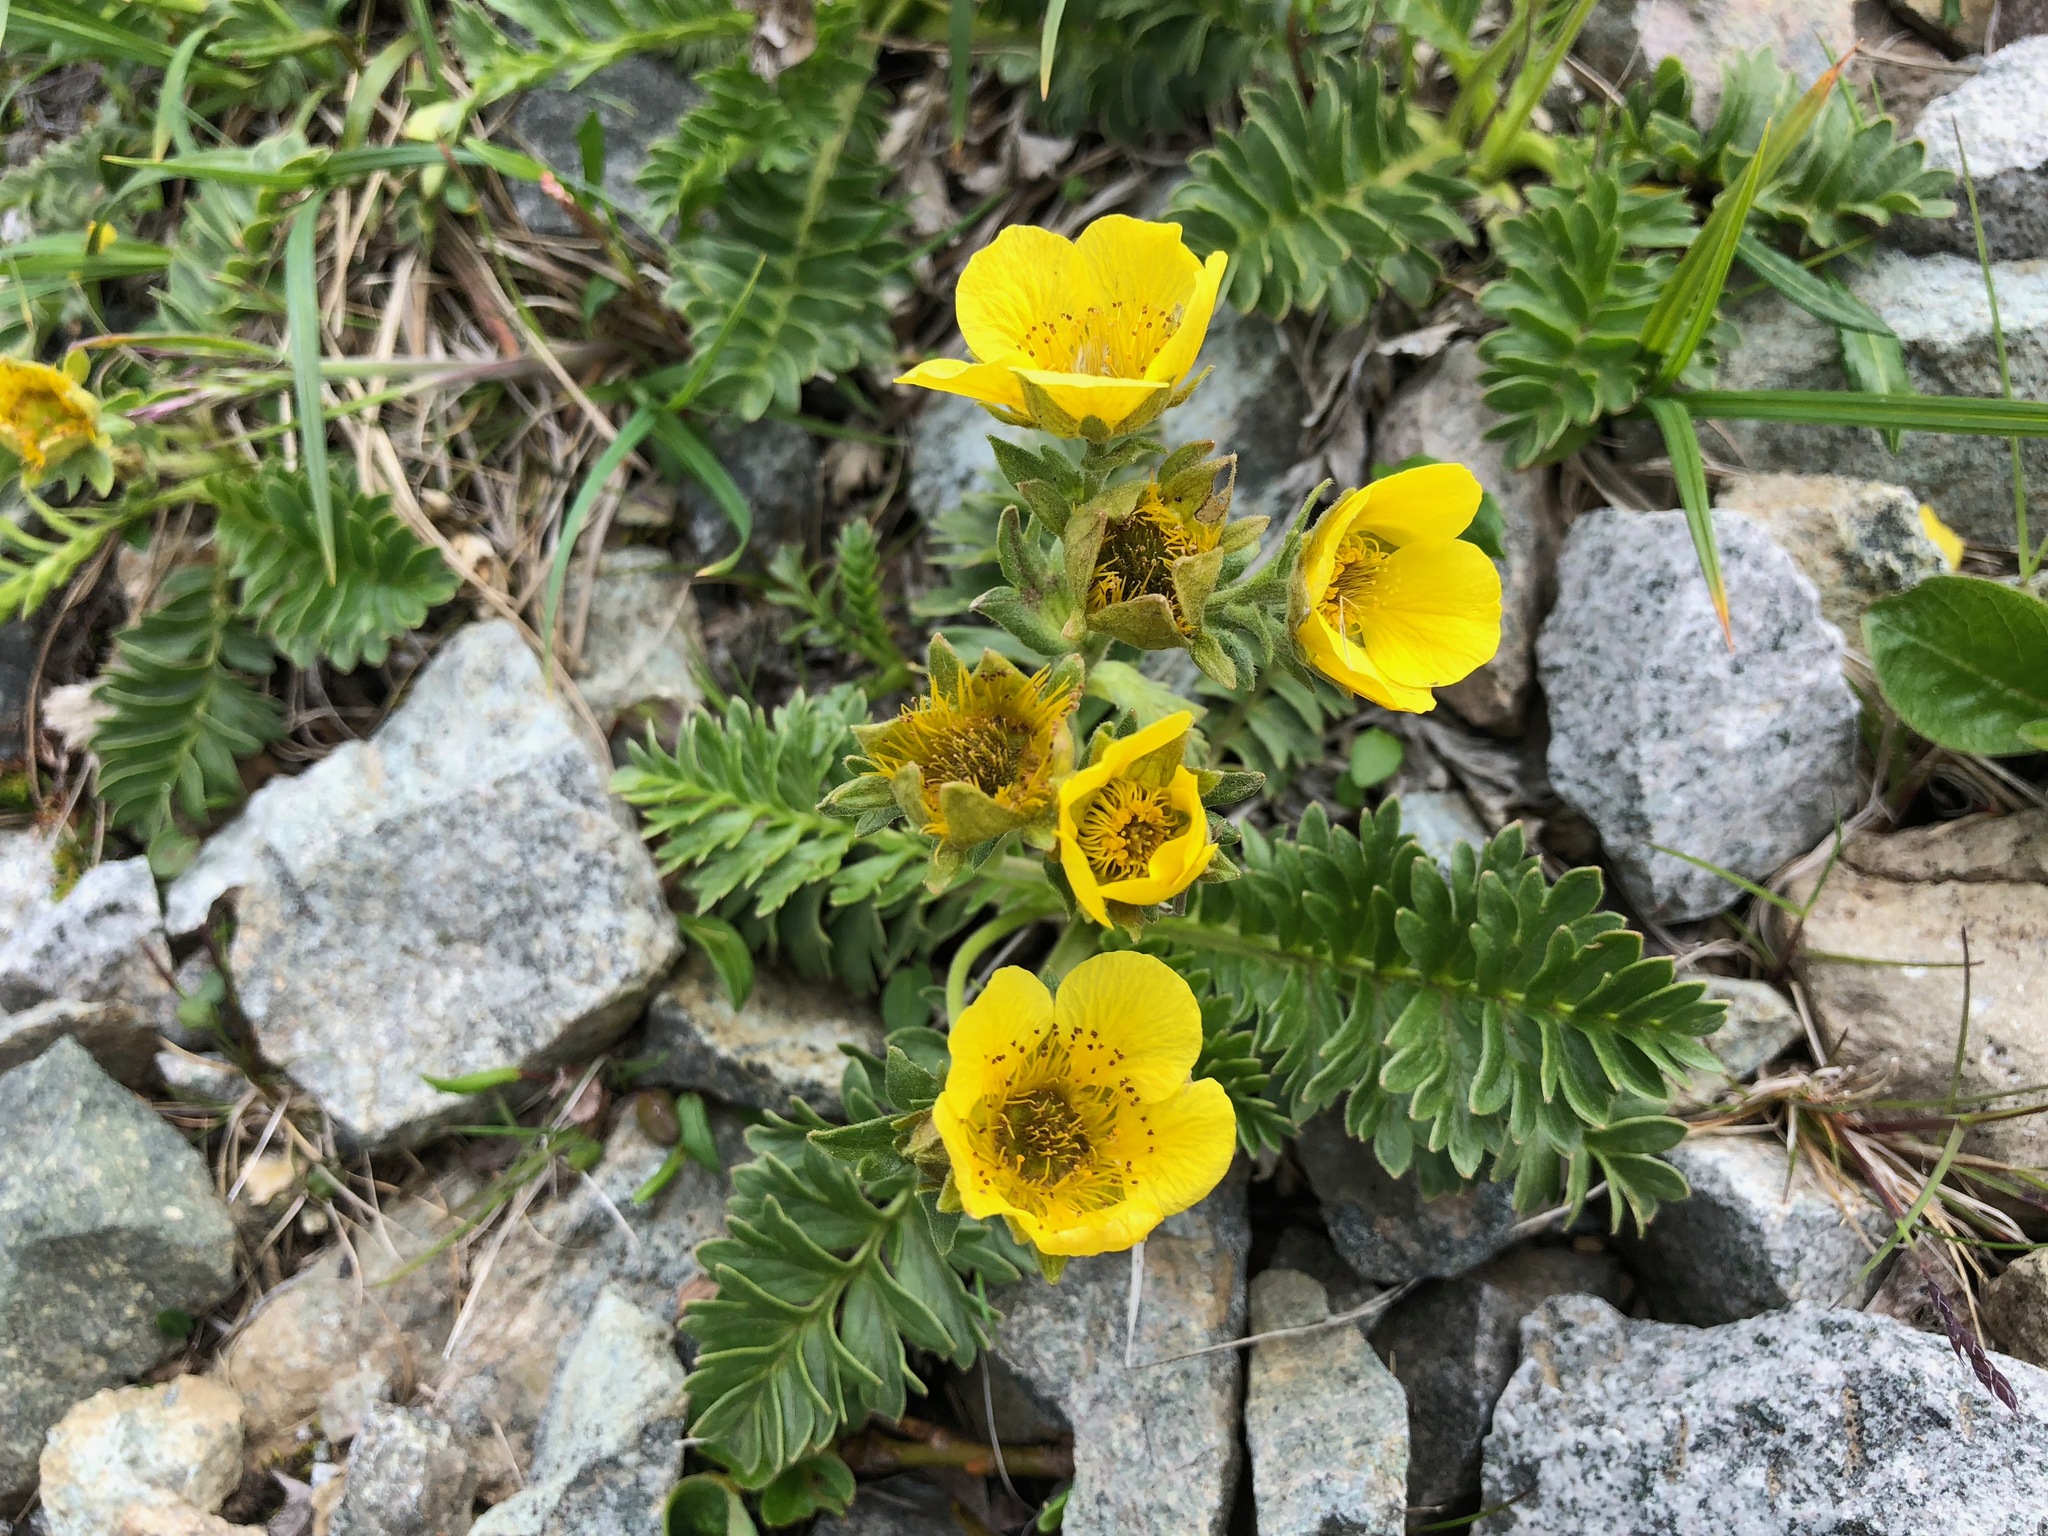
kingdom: Plantae
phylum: Tracheophyta
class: Magnoliopsida
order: Rosales
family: Rosaceae
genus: Geum
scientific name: Geum rossii
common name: Alpine avens
